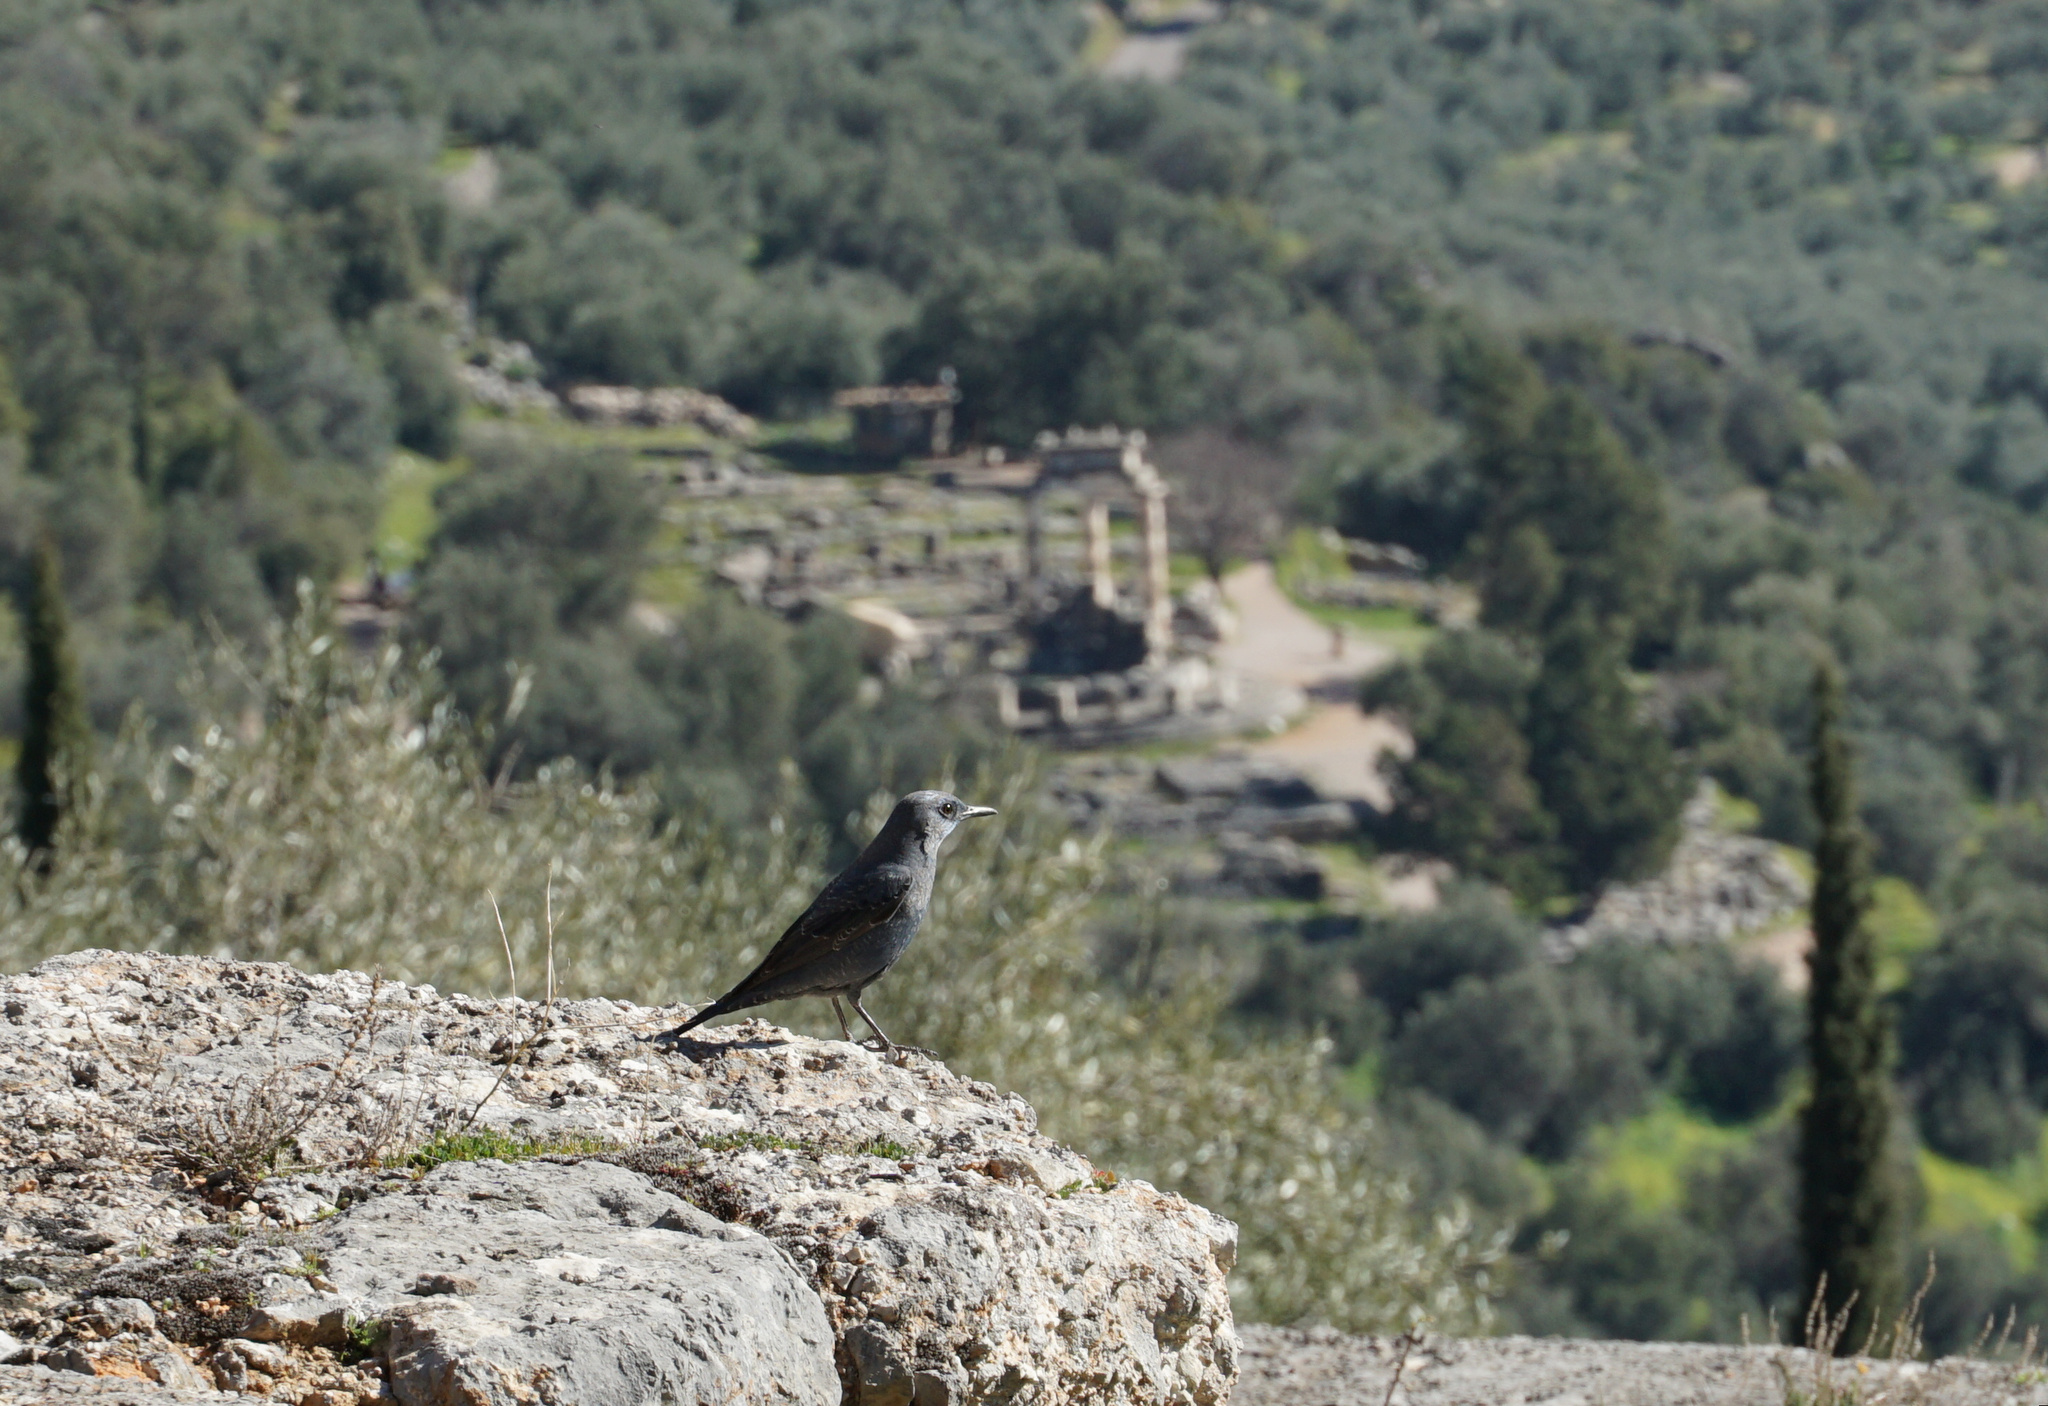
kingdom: Animalia
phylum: Chordata
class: Aves
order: Passeriformes
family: Muscicapidae
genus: Monticola
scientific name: Monticola solitarius
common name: Blue rock thrush
